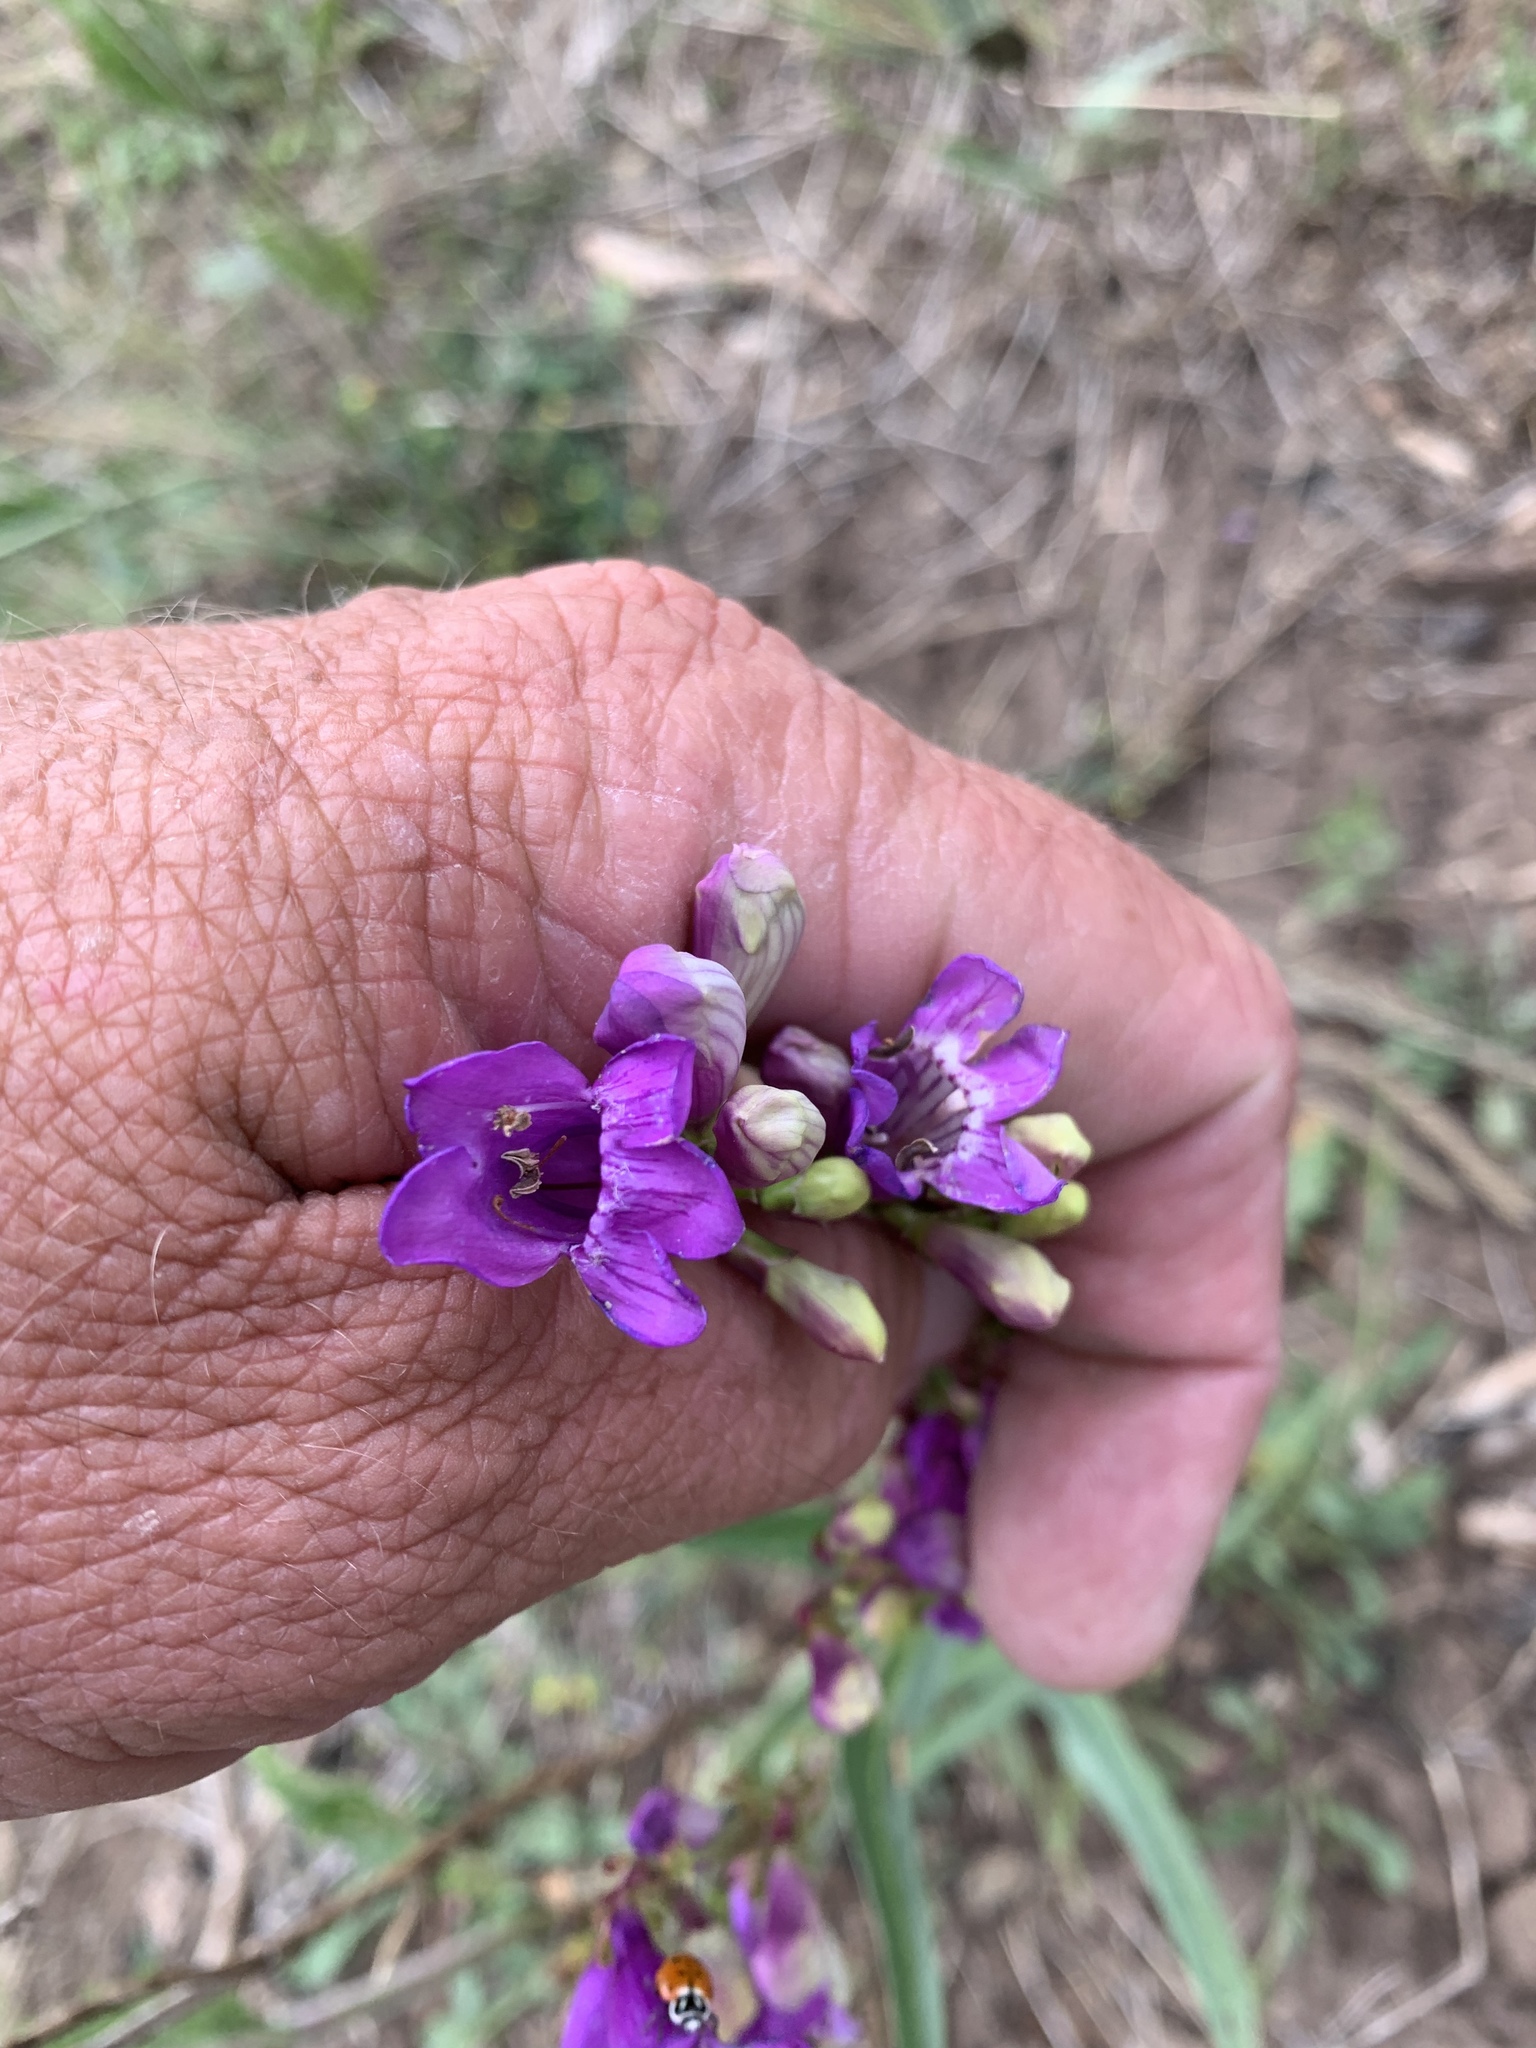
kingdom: Plantae
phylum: Tracheophyta
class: Magnoliopsida
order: Lamiales
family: Plantaginaceae
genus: Penstemon
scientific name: Penstemon neomexicanus
